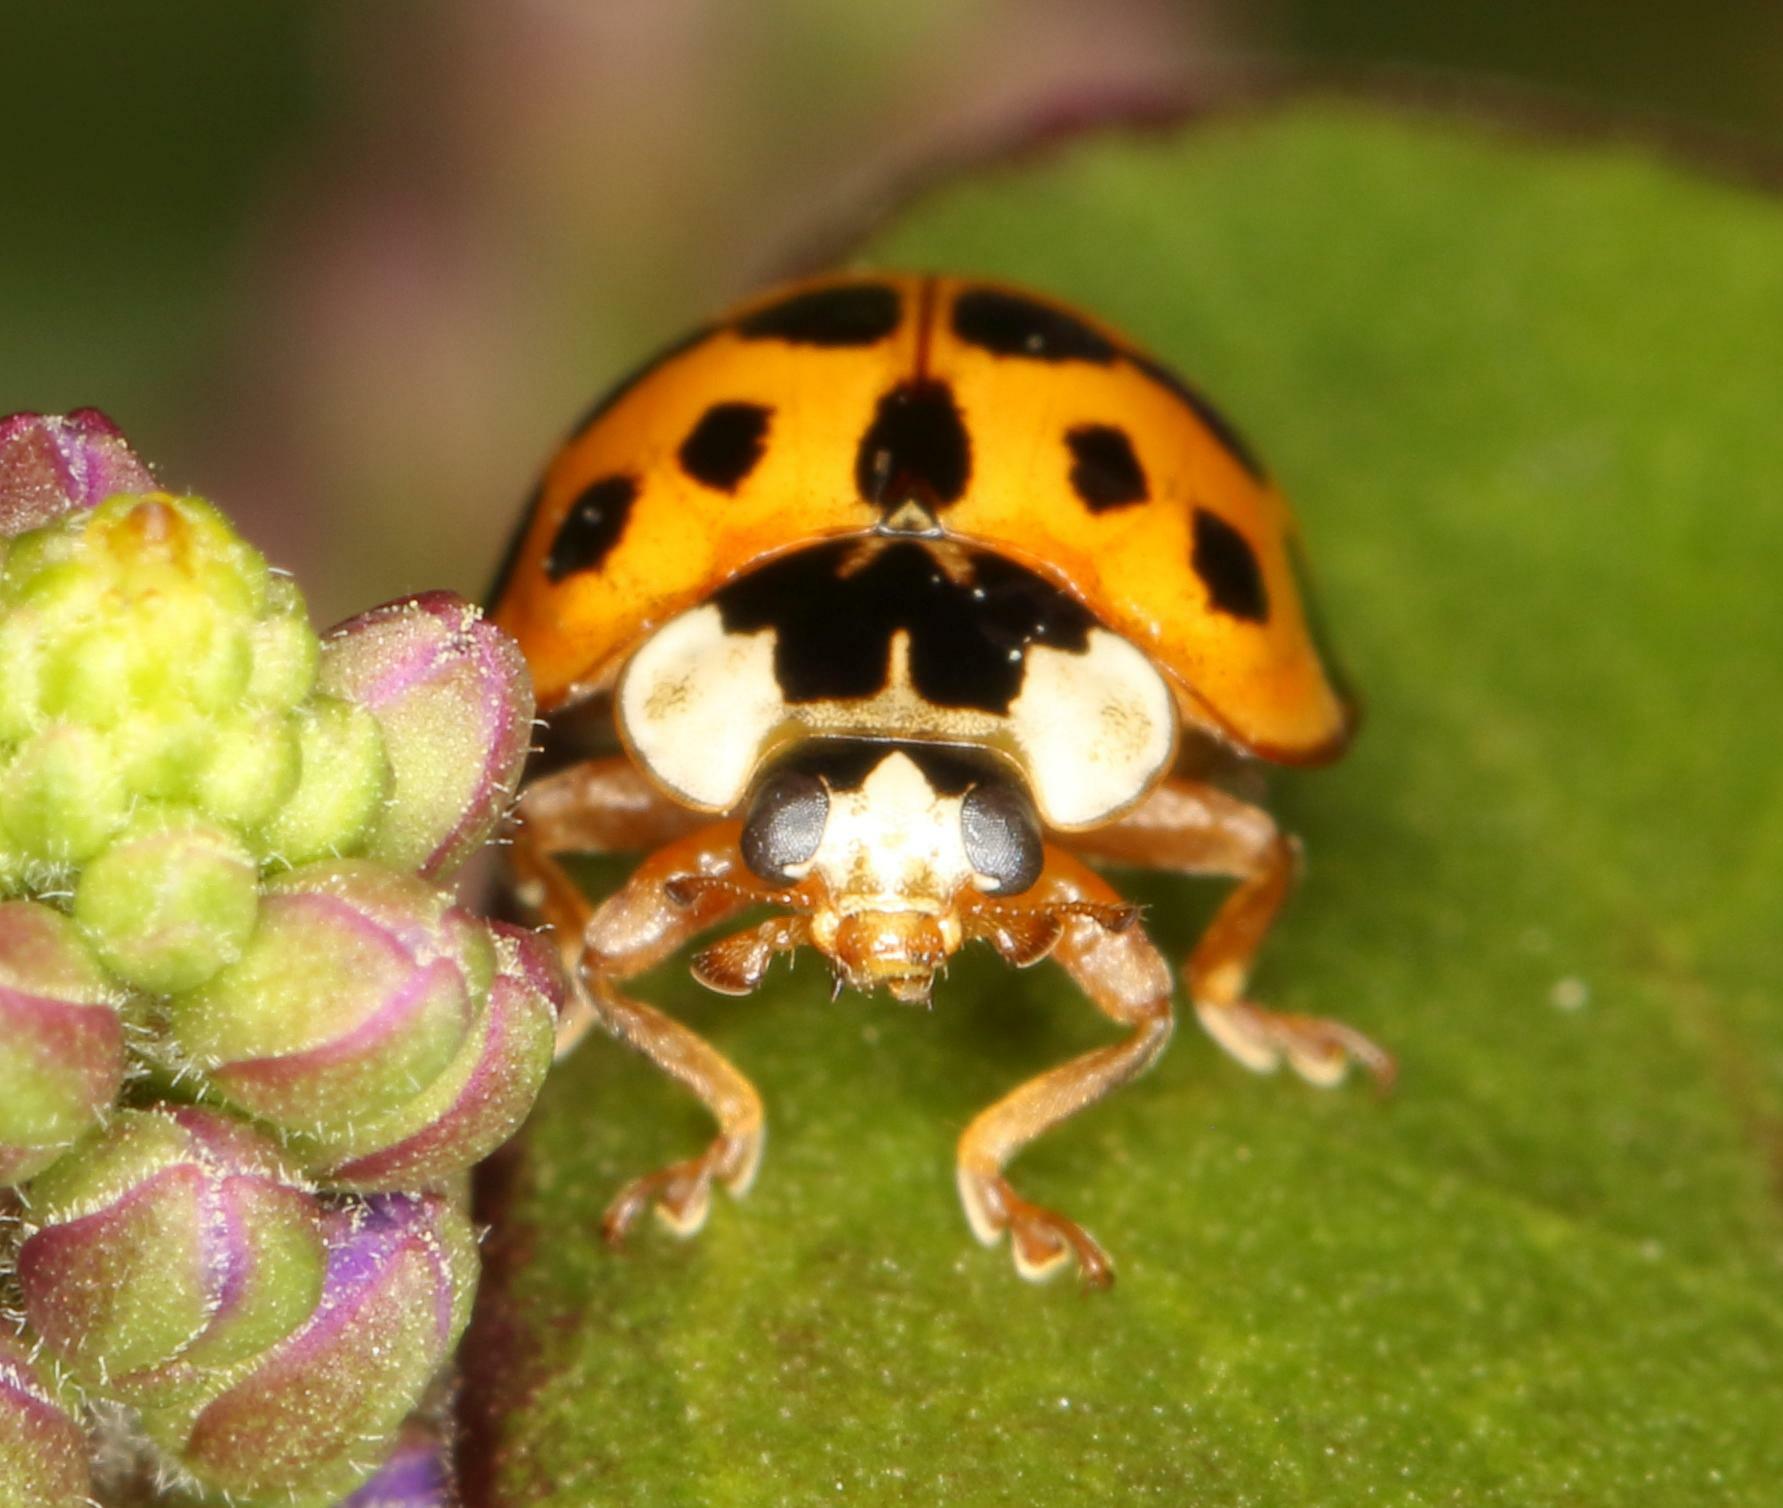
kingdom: Animalia
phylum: Arthropoda
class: Insecta
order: Coleoptera
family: Coccinellidae
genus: Harmonia
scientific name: Harmonia axyridis
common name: Harlequin ladybird
